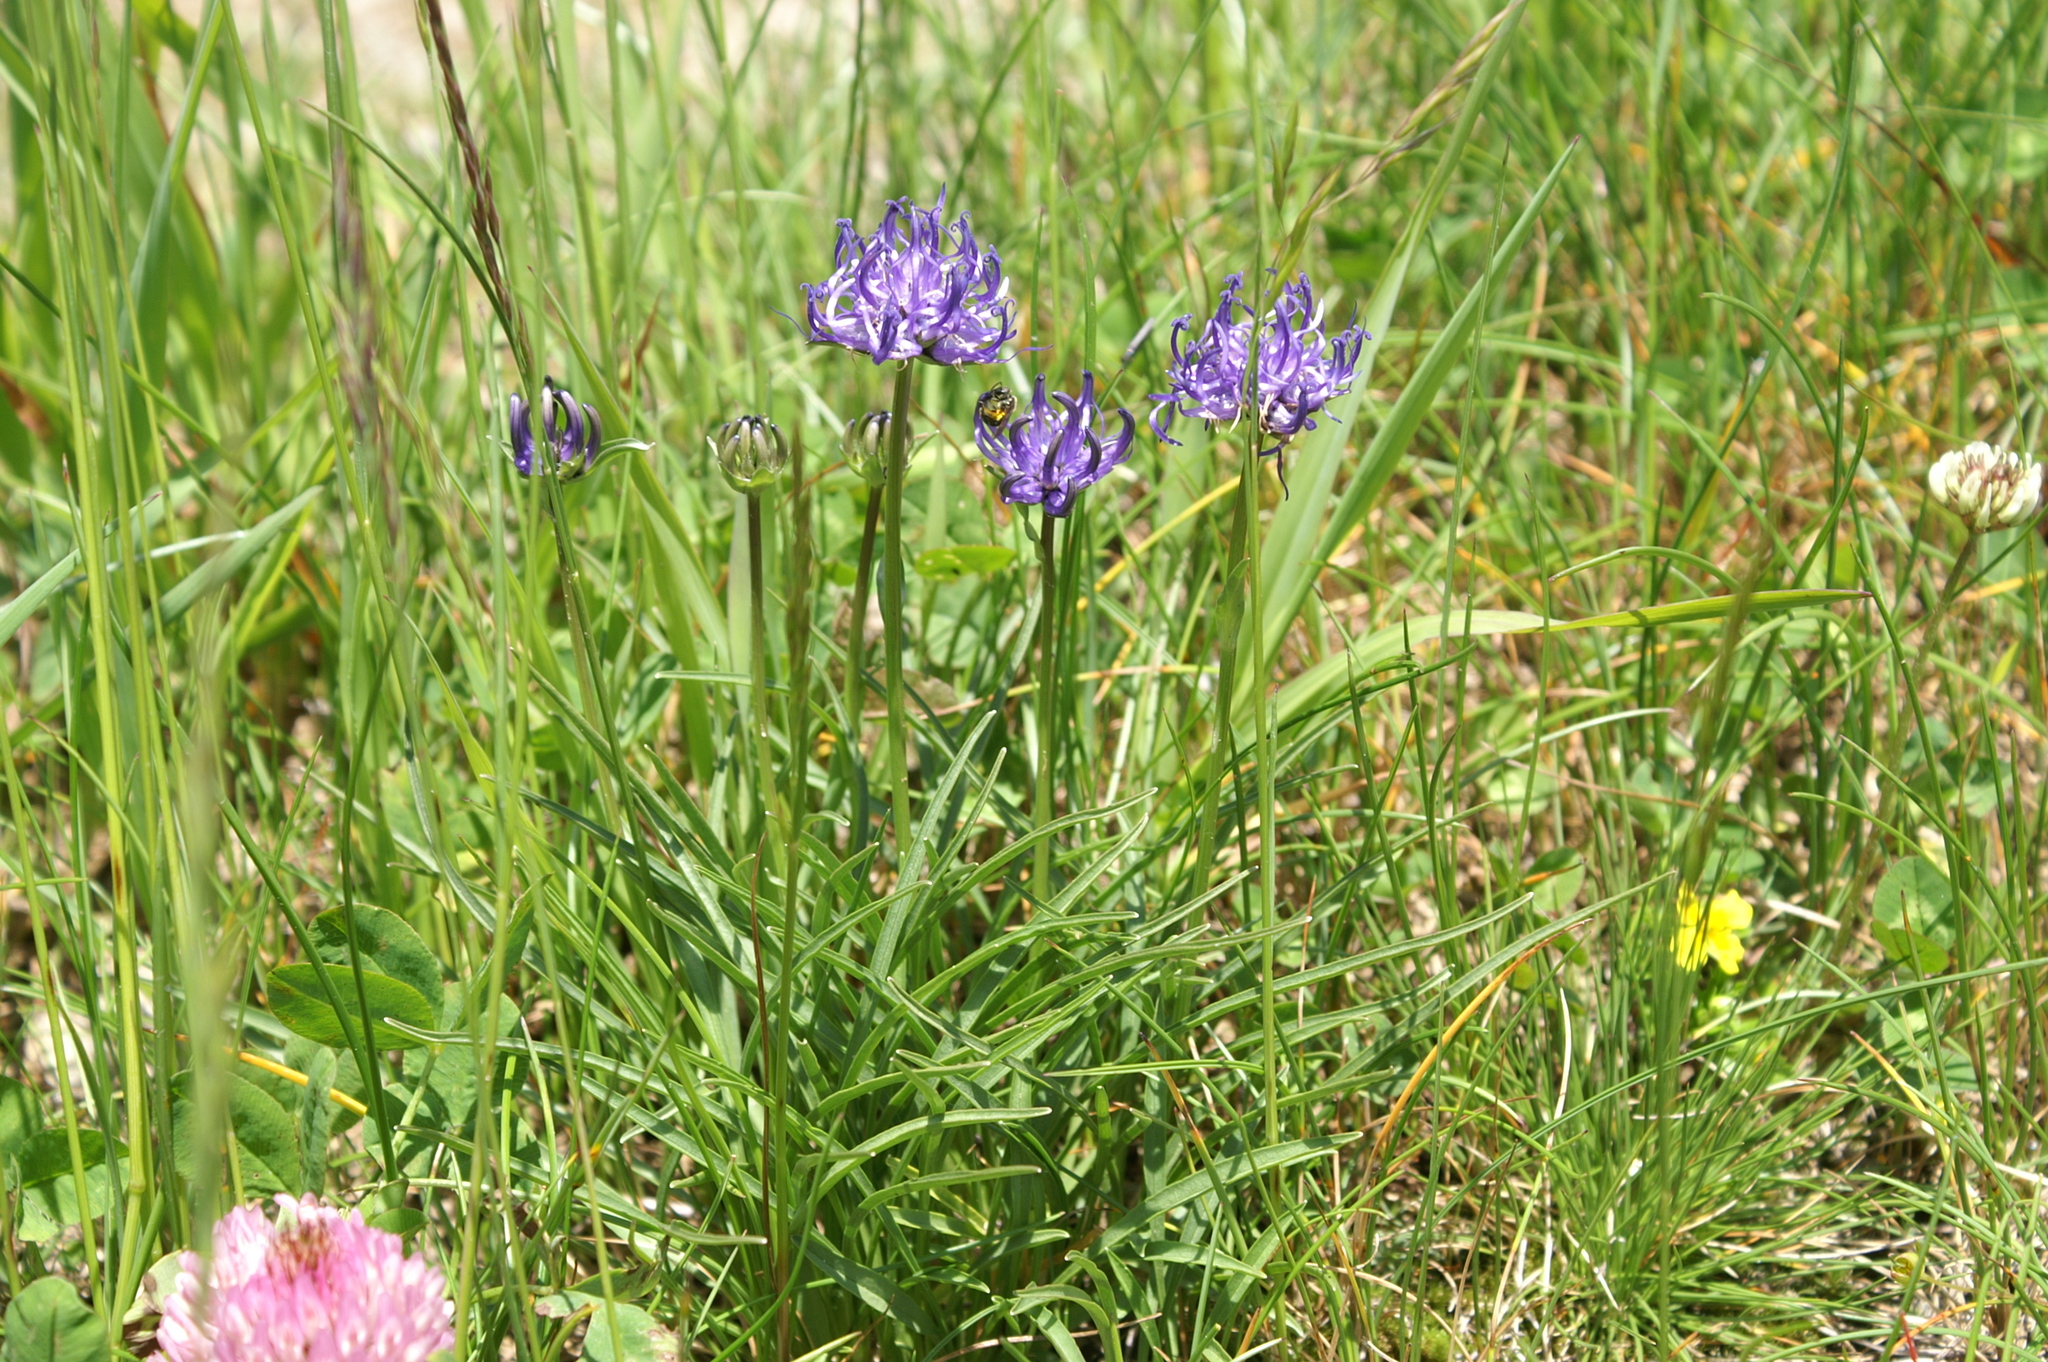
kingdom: Plantae
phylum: Tracheophyta
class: Magnoliopsida
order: Asterales
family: Campanulaceae
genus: Phyteuma
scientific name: Phyteuma hemisphaericum
